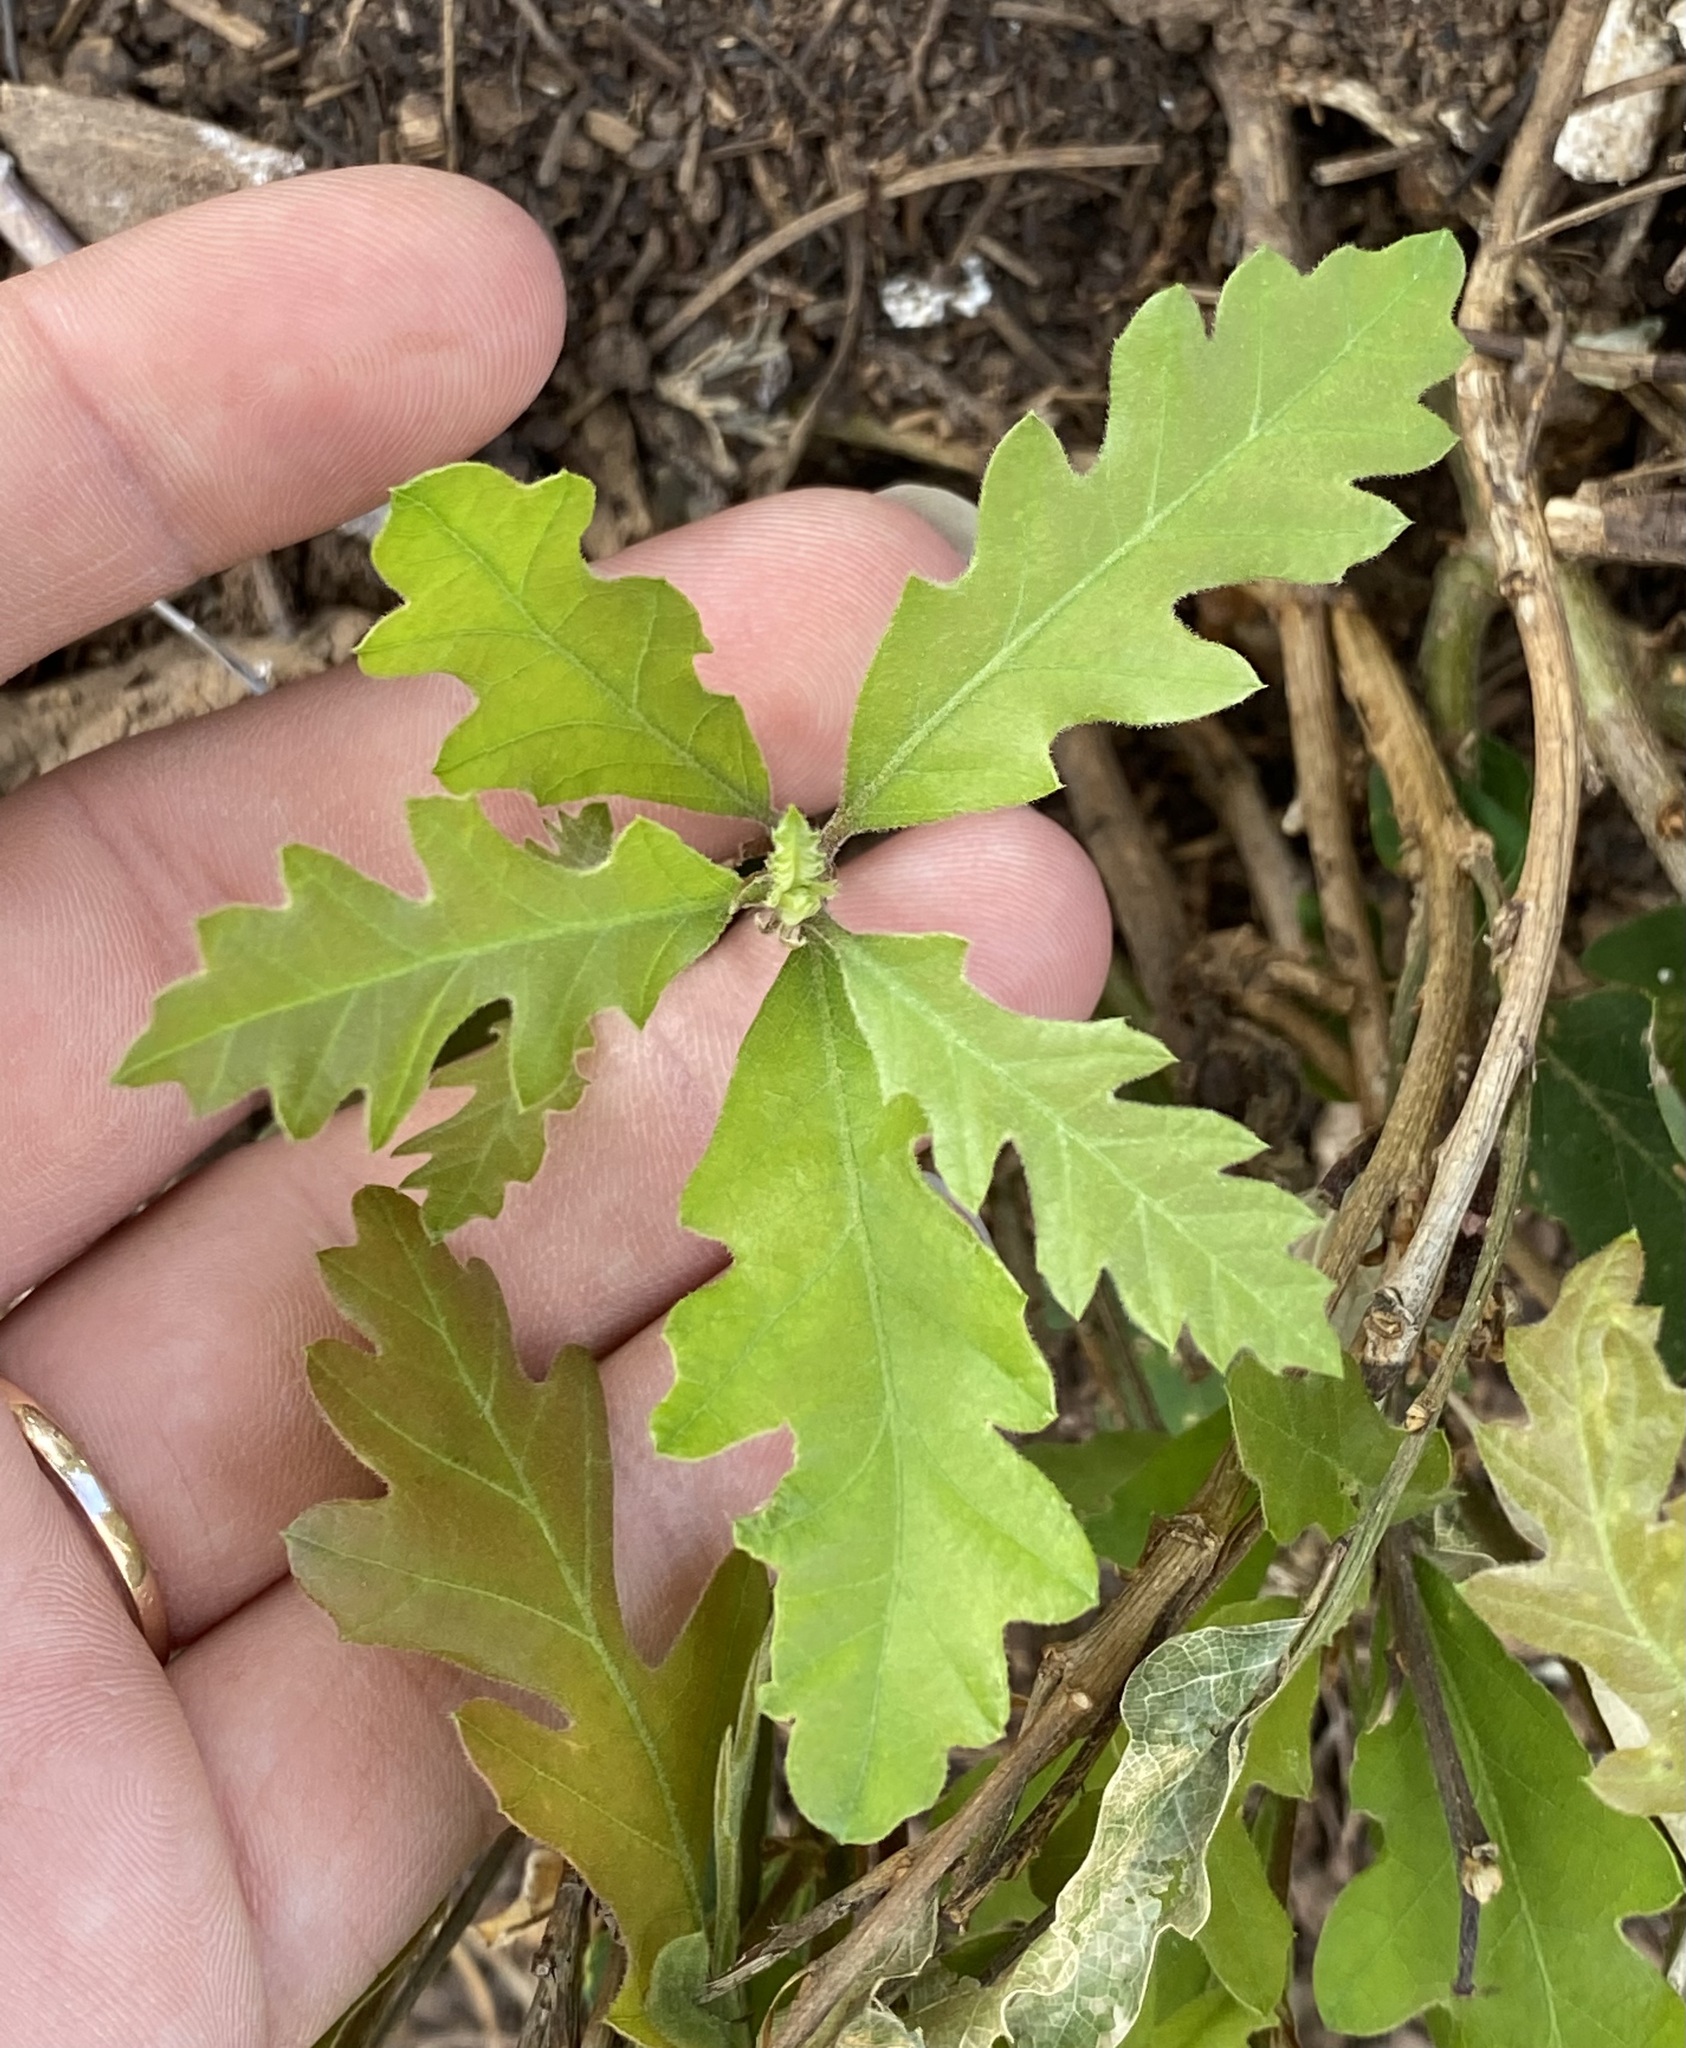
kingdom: Plantae
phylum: Tracheophyta
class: Magnoliopsida
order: Fagales
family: Fagaceae
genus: Quercus
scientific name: Quercus gambelii
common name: Gambel oak
